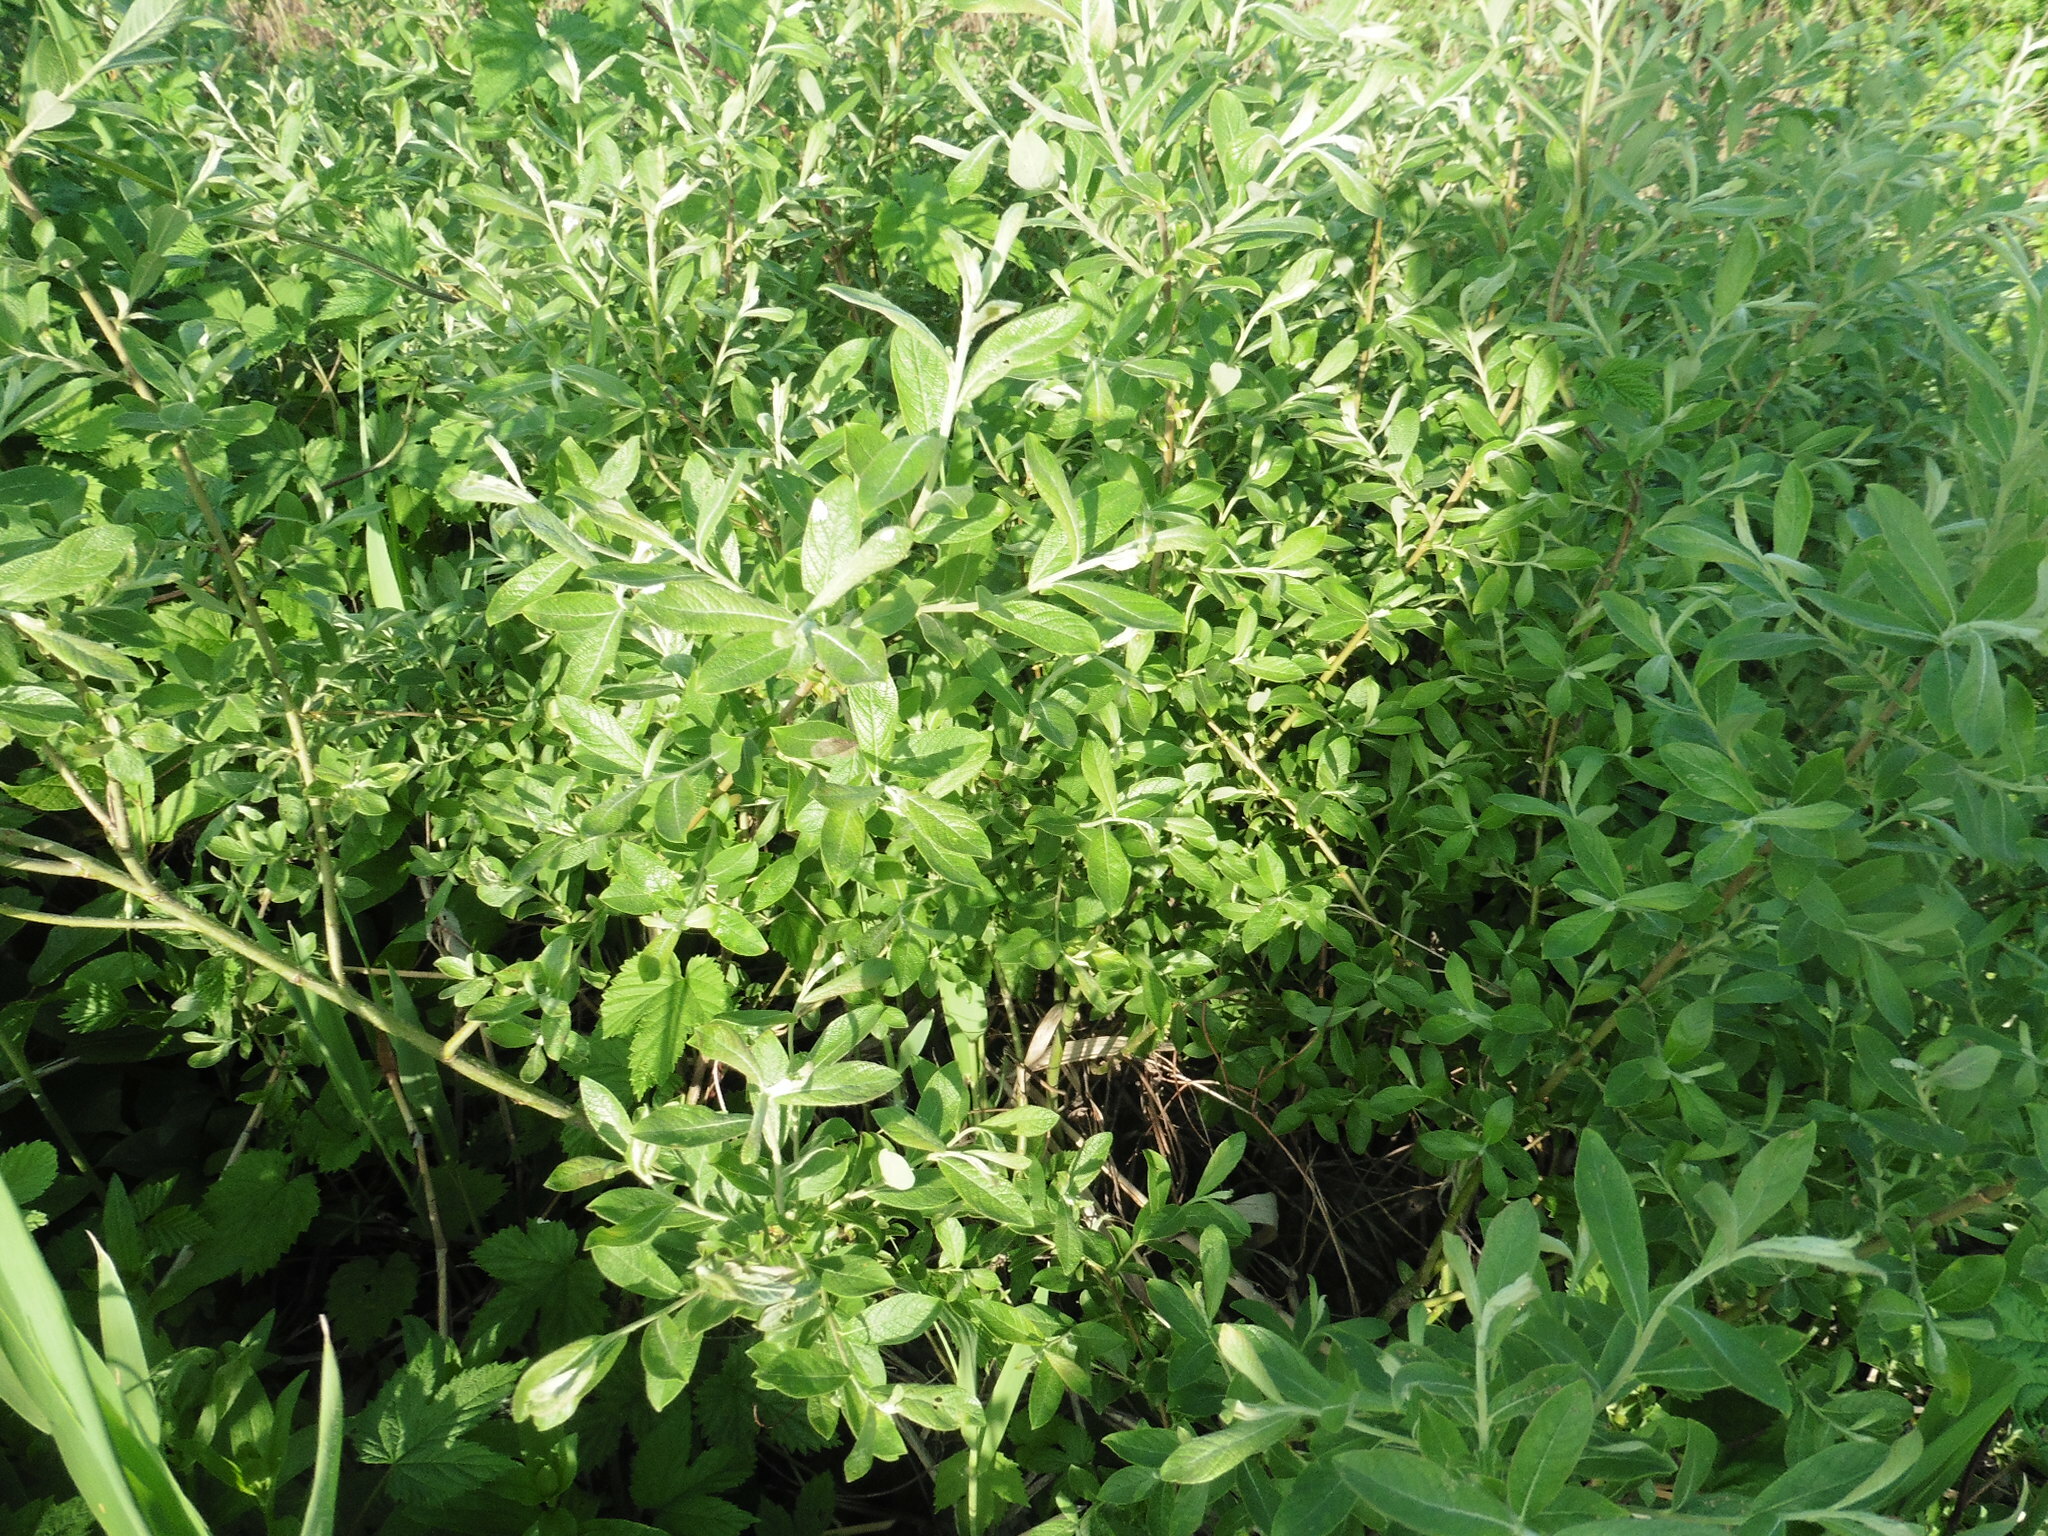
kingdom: Plantae
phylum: Tracheophyta
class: Magnoliopsida
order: Malpighiales
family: Salicaceae
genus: Salix
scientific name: Salix cinerea
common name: Common sallow
